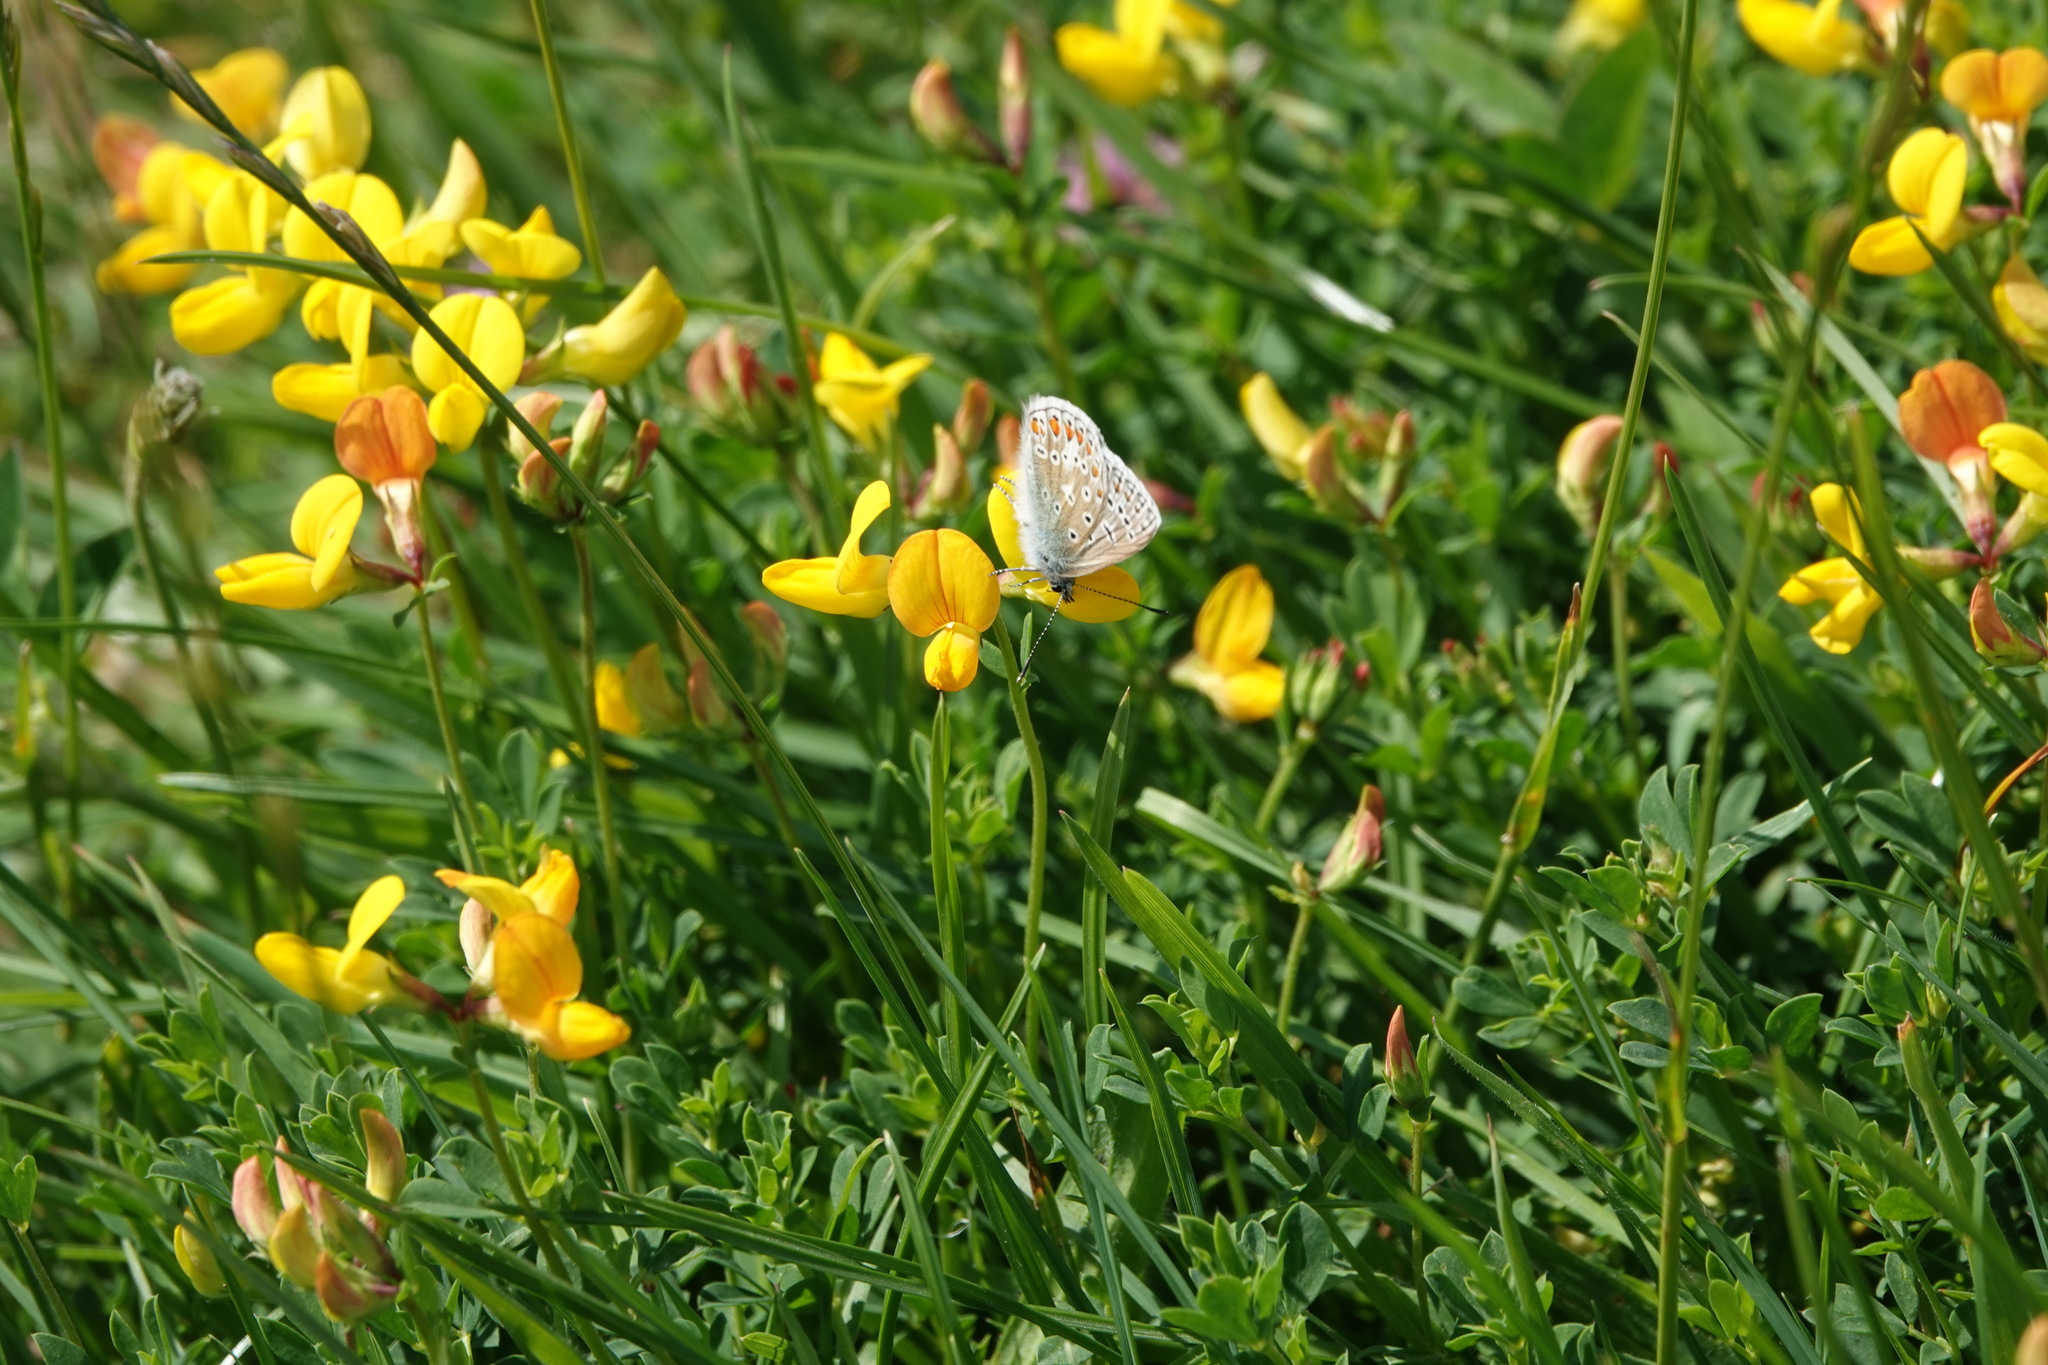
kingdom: Animalia
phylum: Arthropoda
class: Insecta
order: Lepidoptera
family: Lycaenidae
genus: Polyommatus
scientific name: Polyommatus icarus
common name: Common blue
